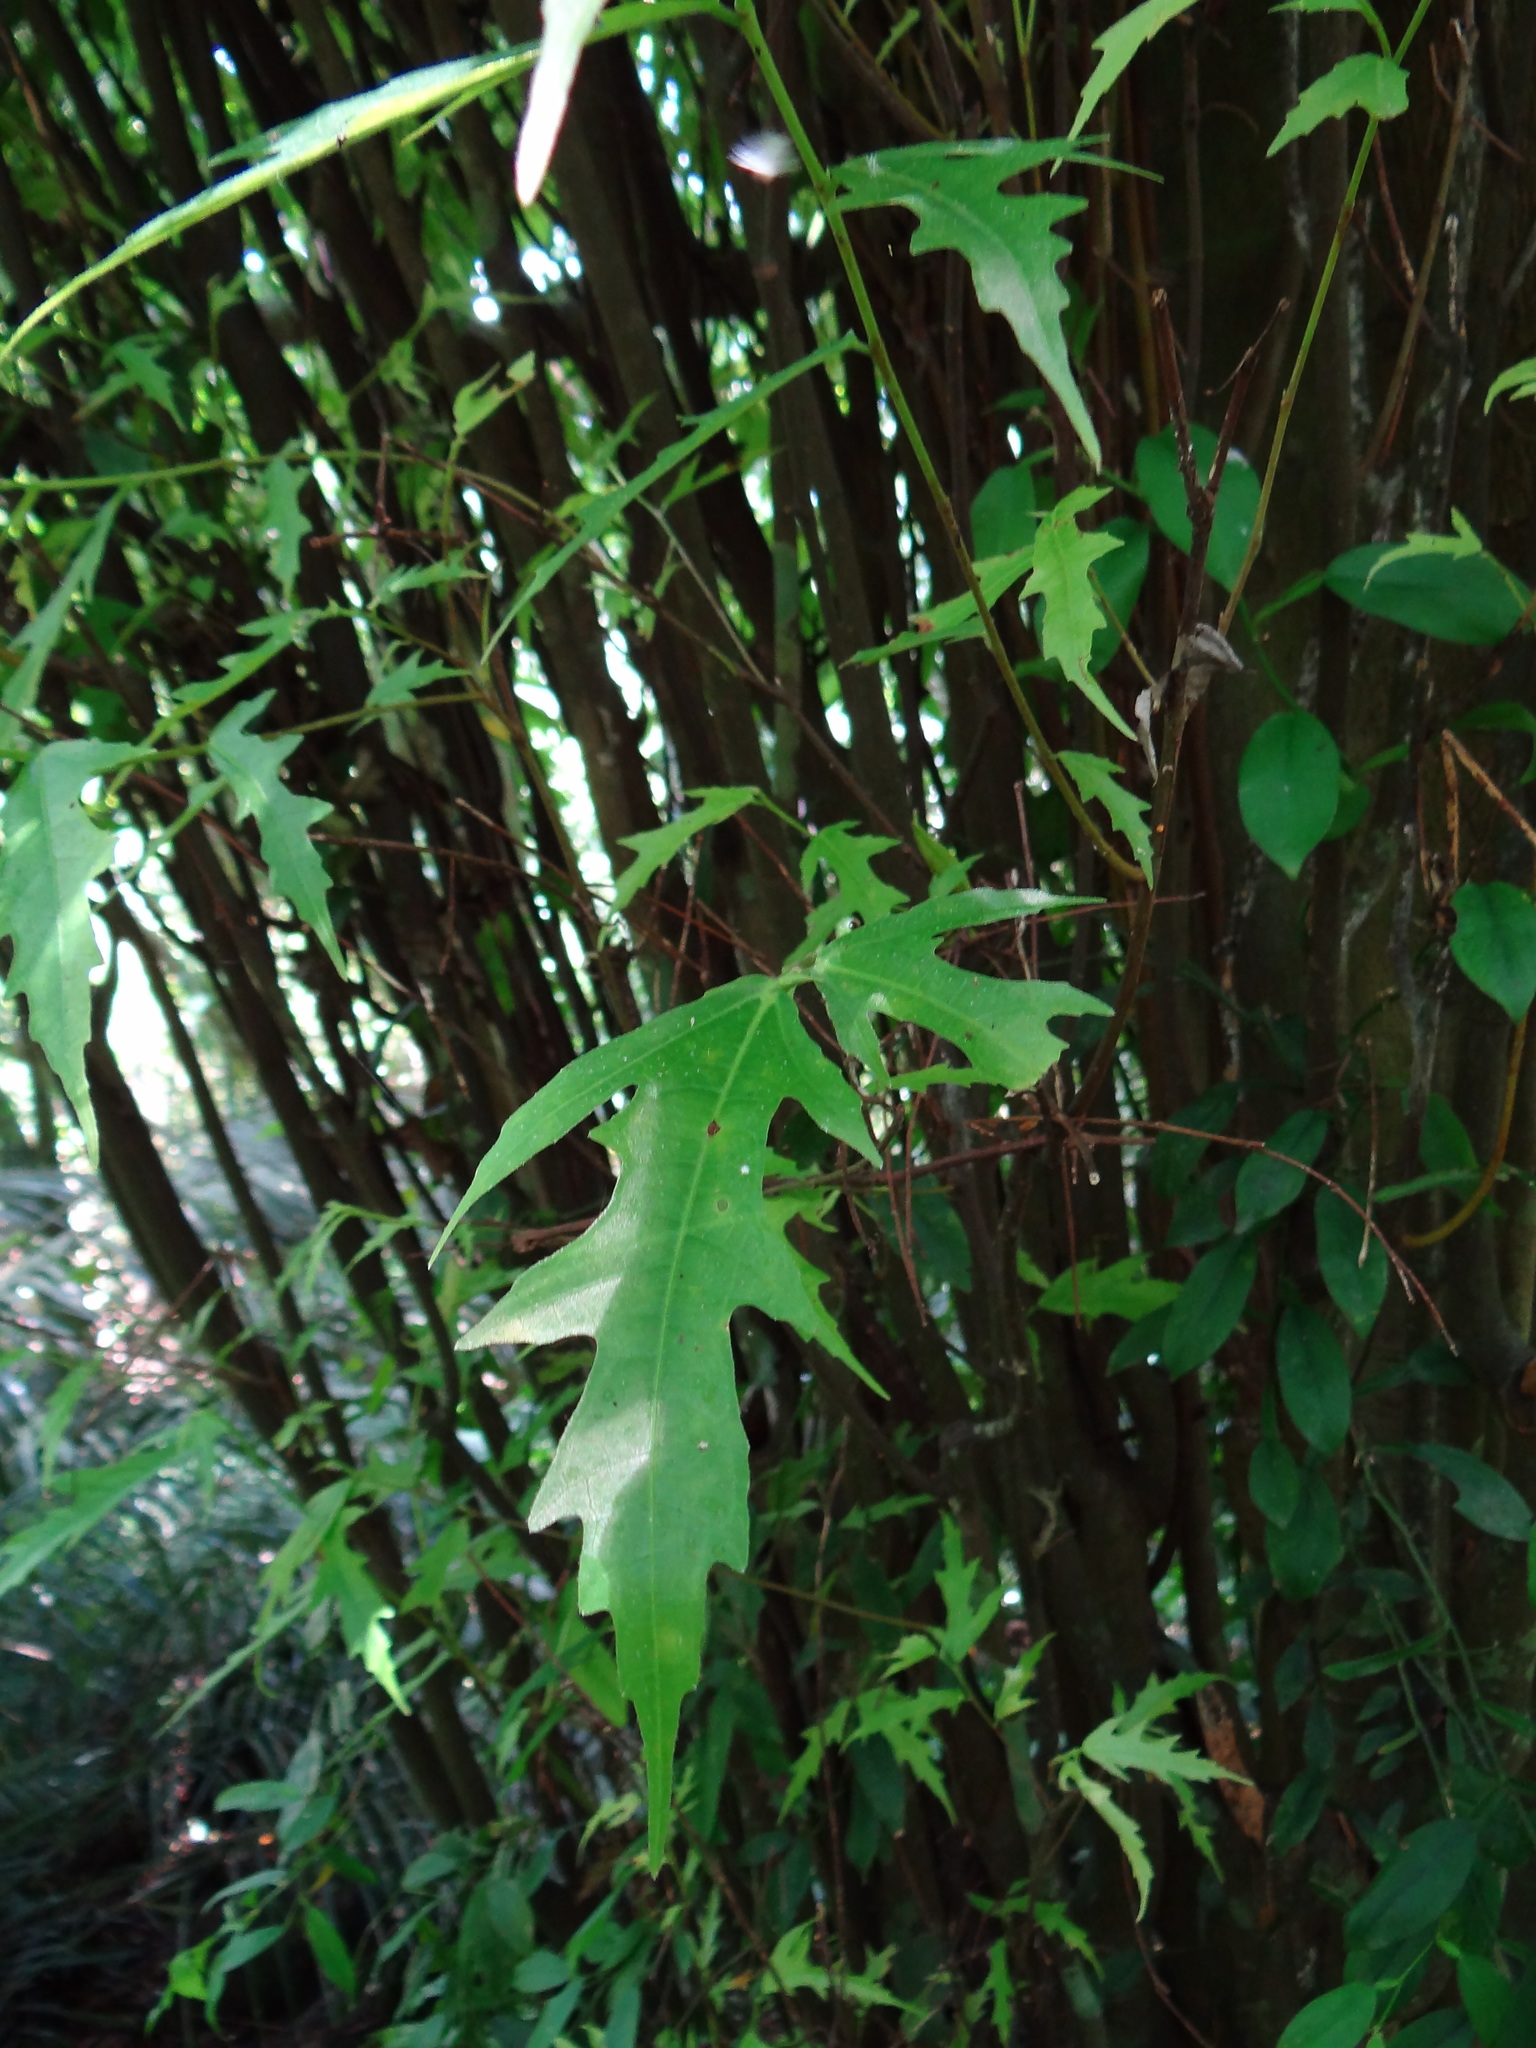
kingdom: Plantae
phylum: Tracheophyta
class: Magnoliopsida
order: Rosales
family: Moraceae
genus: Ficus
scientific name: Ficus ampelos
